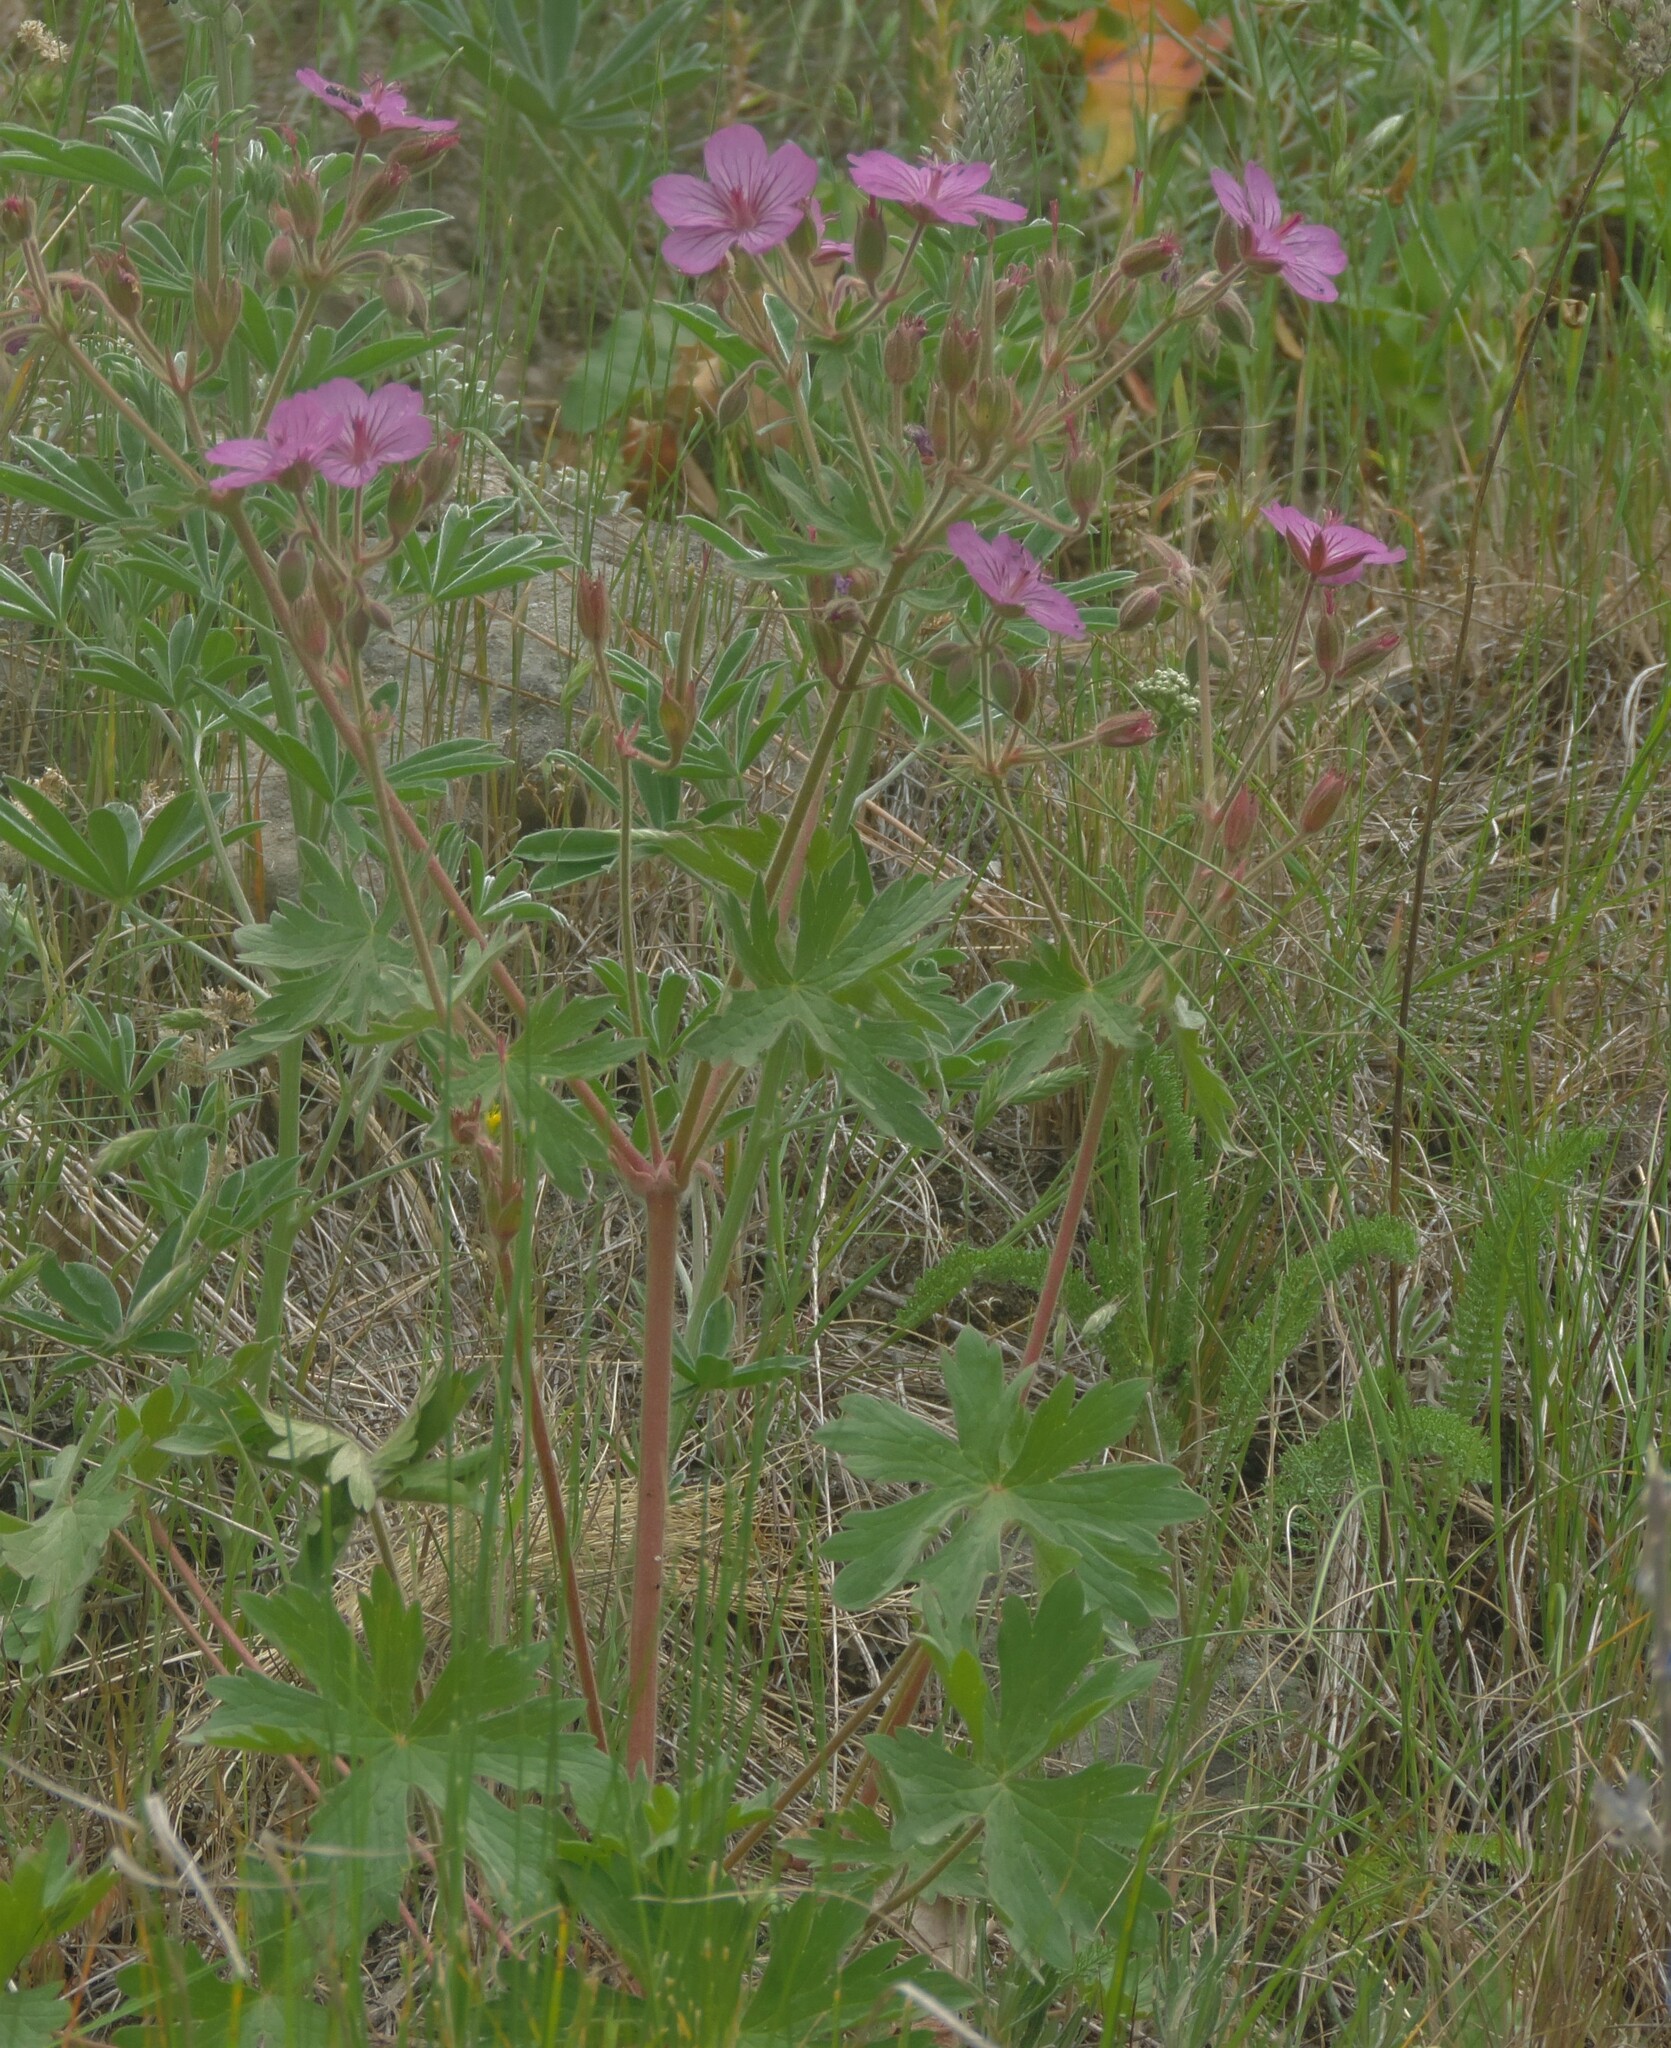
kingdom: Plantae
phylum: Tracheophyta
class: Magnoliopsida
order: Geraniales
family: Geraniaceae
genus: Geranium
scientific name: Geranium viscosissimum
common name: Purple geranium
